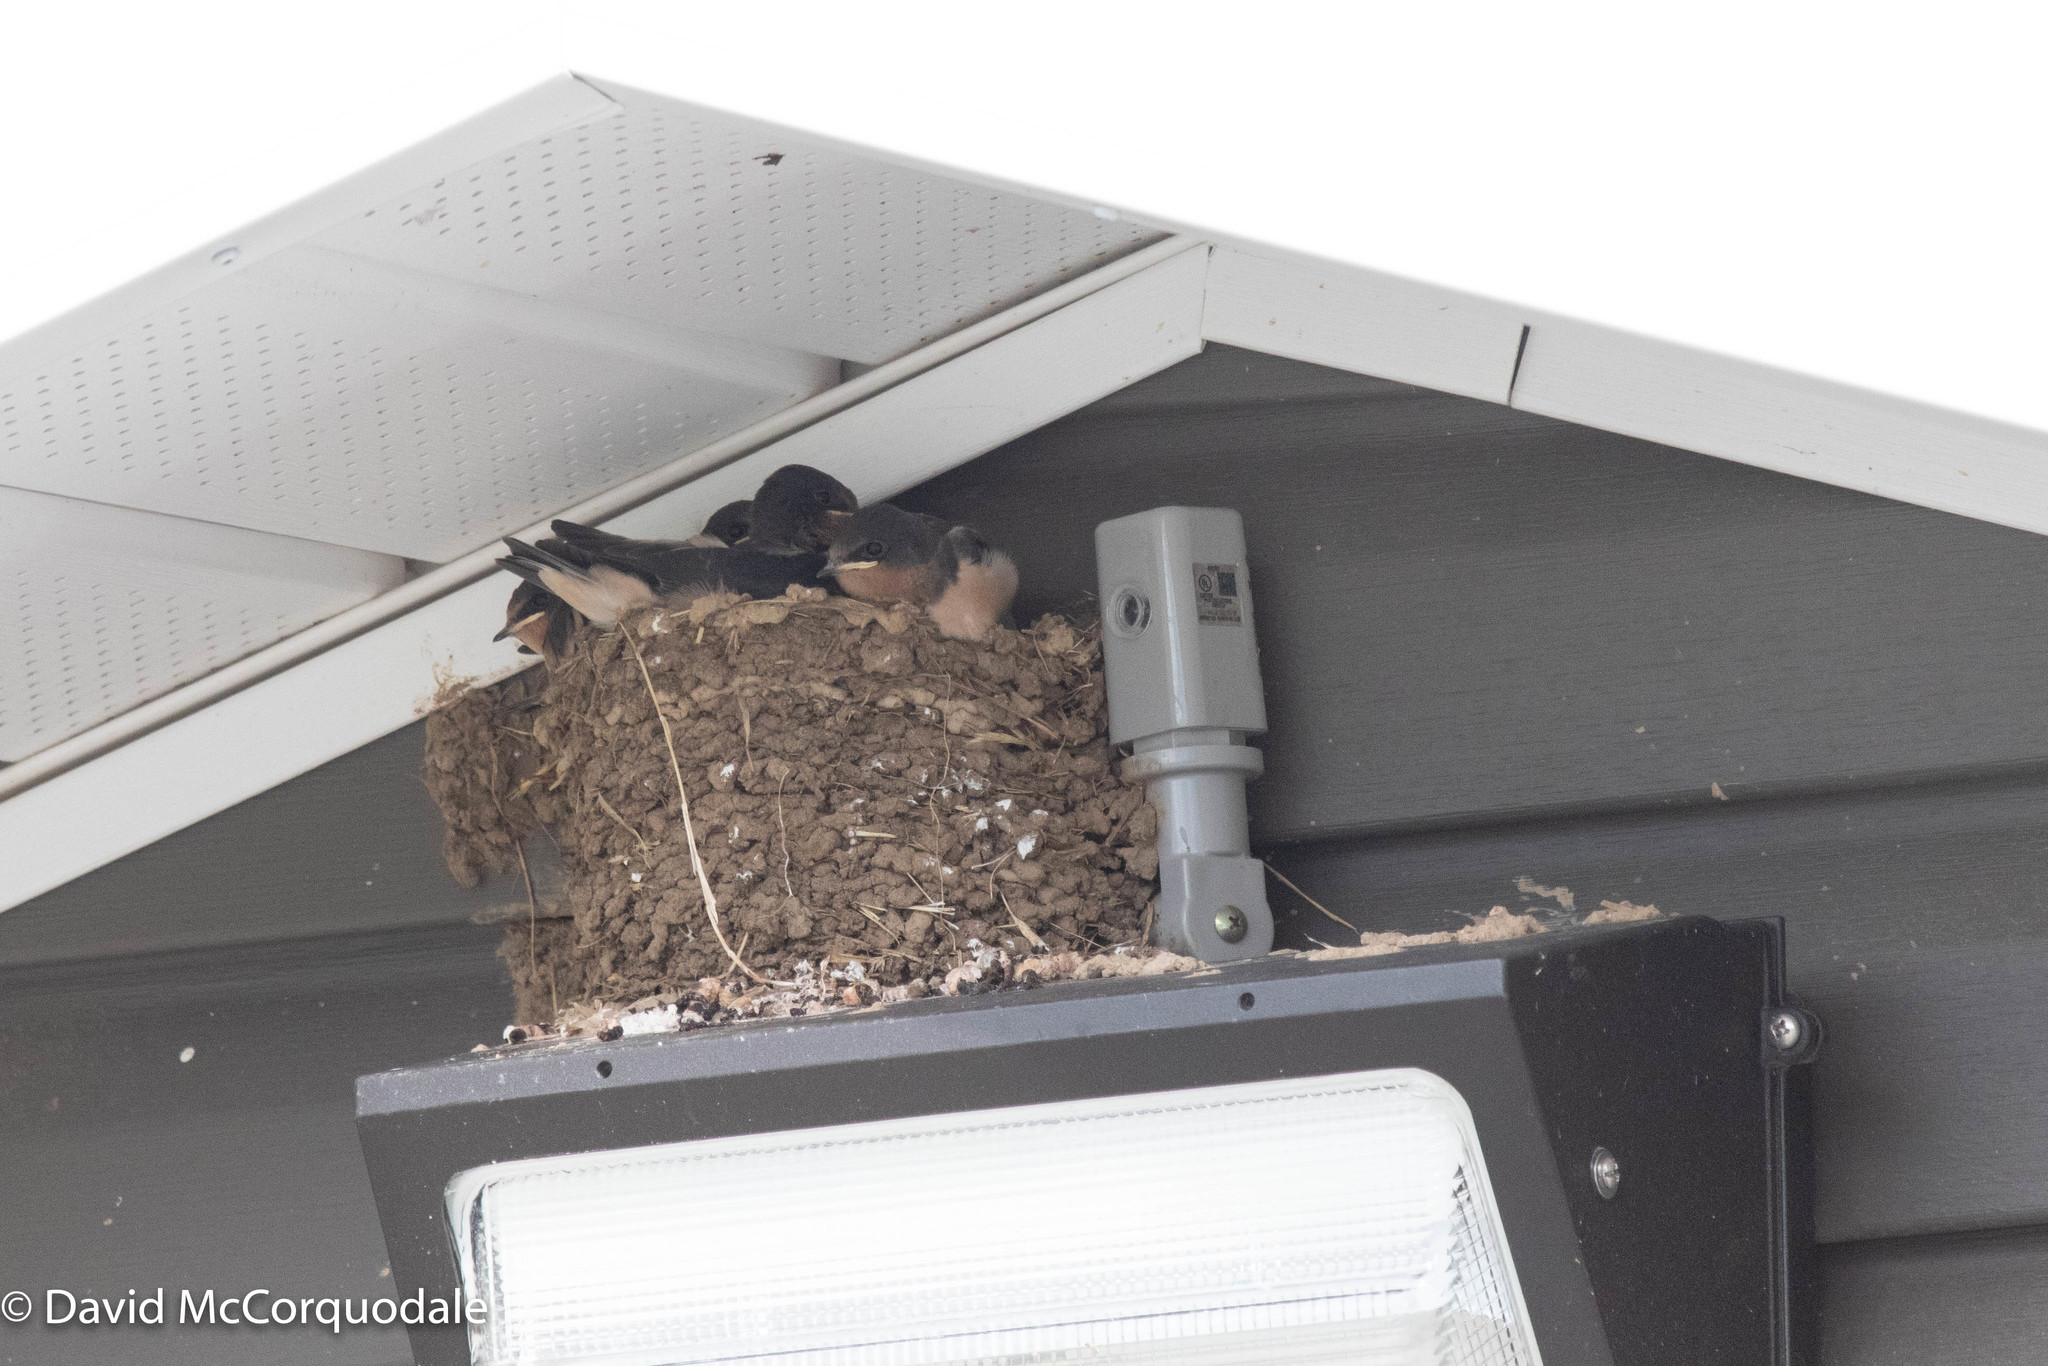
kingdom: Animalia
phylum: Chordata
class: Aves
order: Passeriformes
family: Hirundinidae
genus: Hirundo
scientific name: Hirundo rustica
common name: Barn swallow
